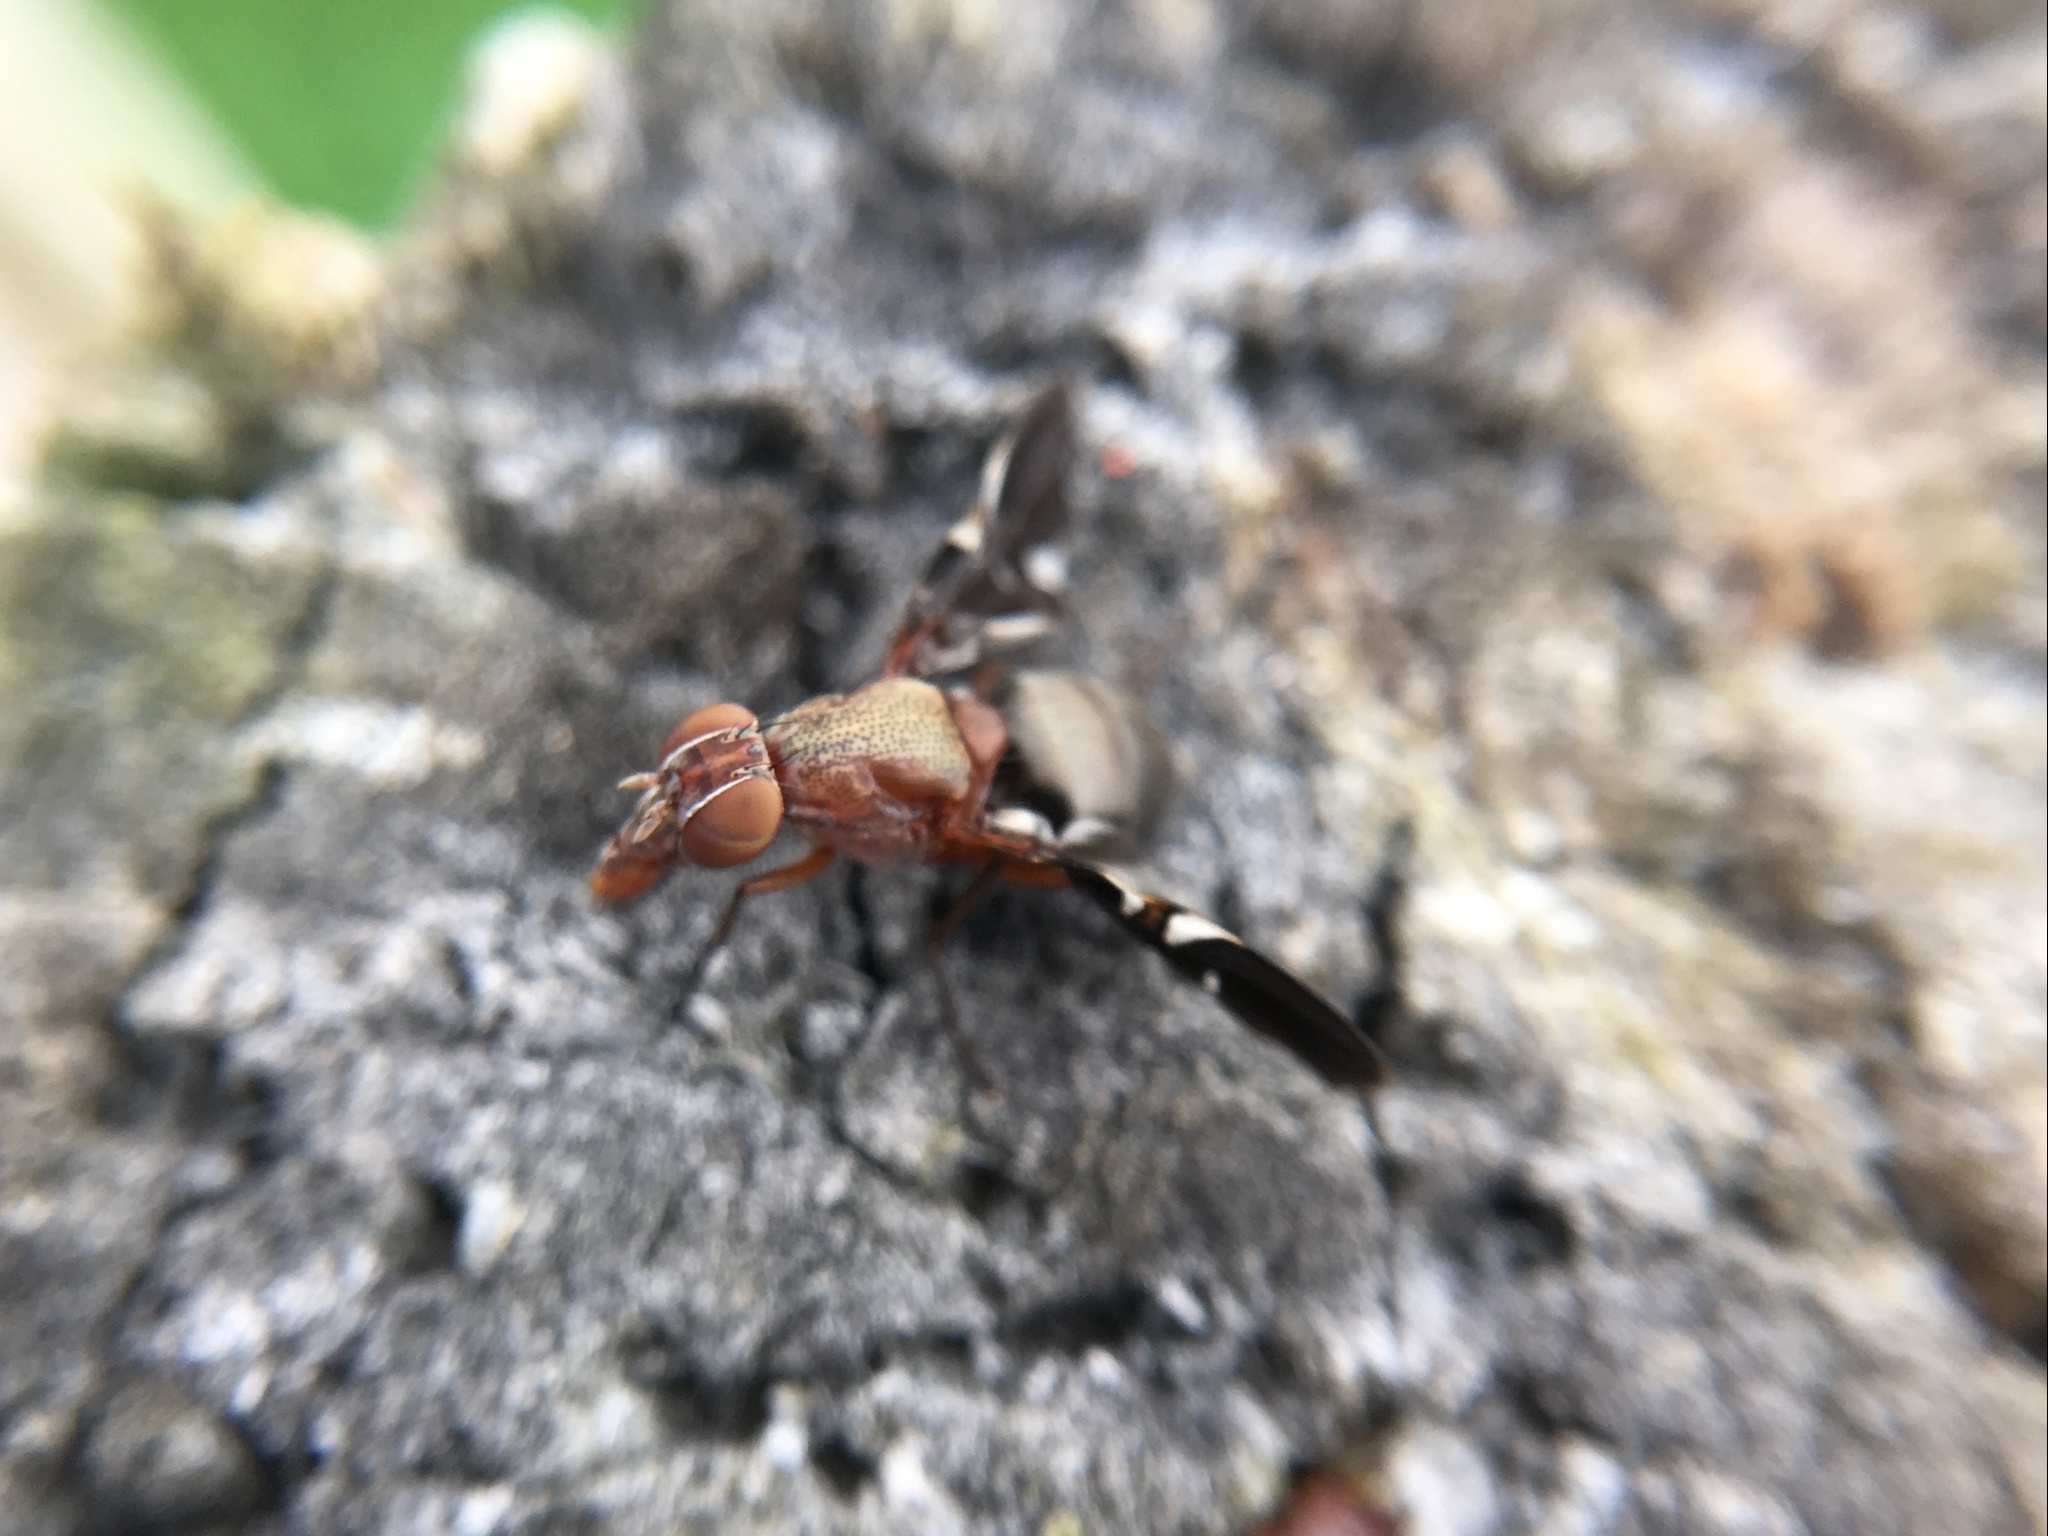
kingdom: Animalia
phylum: Arthropoda
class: Insecta
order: Diptera
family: Ulidiidae
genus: Delphinia
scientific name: Delphinia picta
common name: Common picture-winged fly
